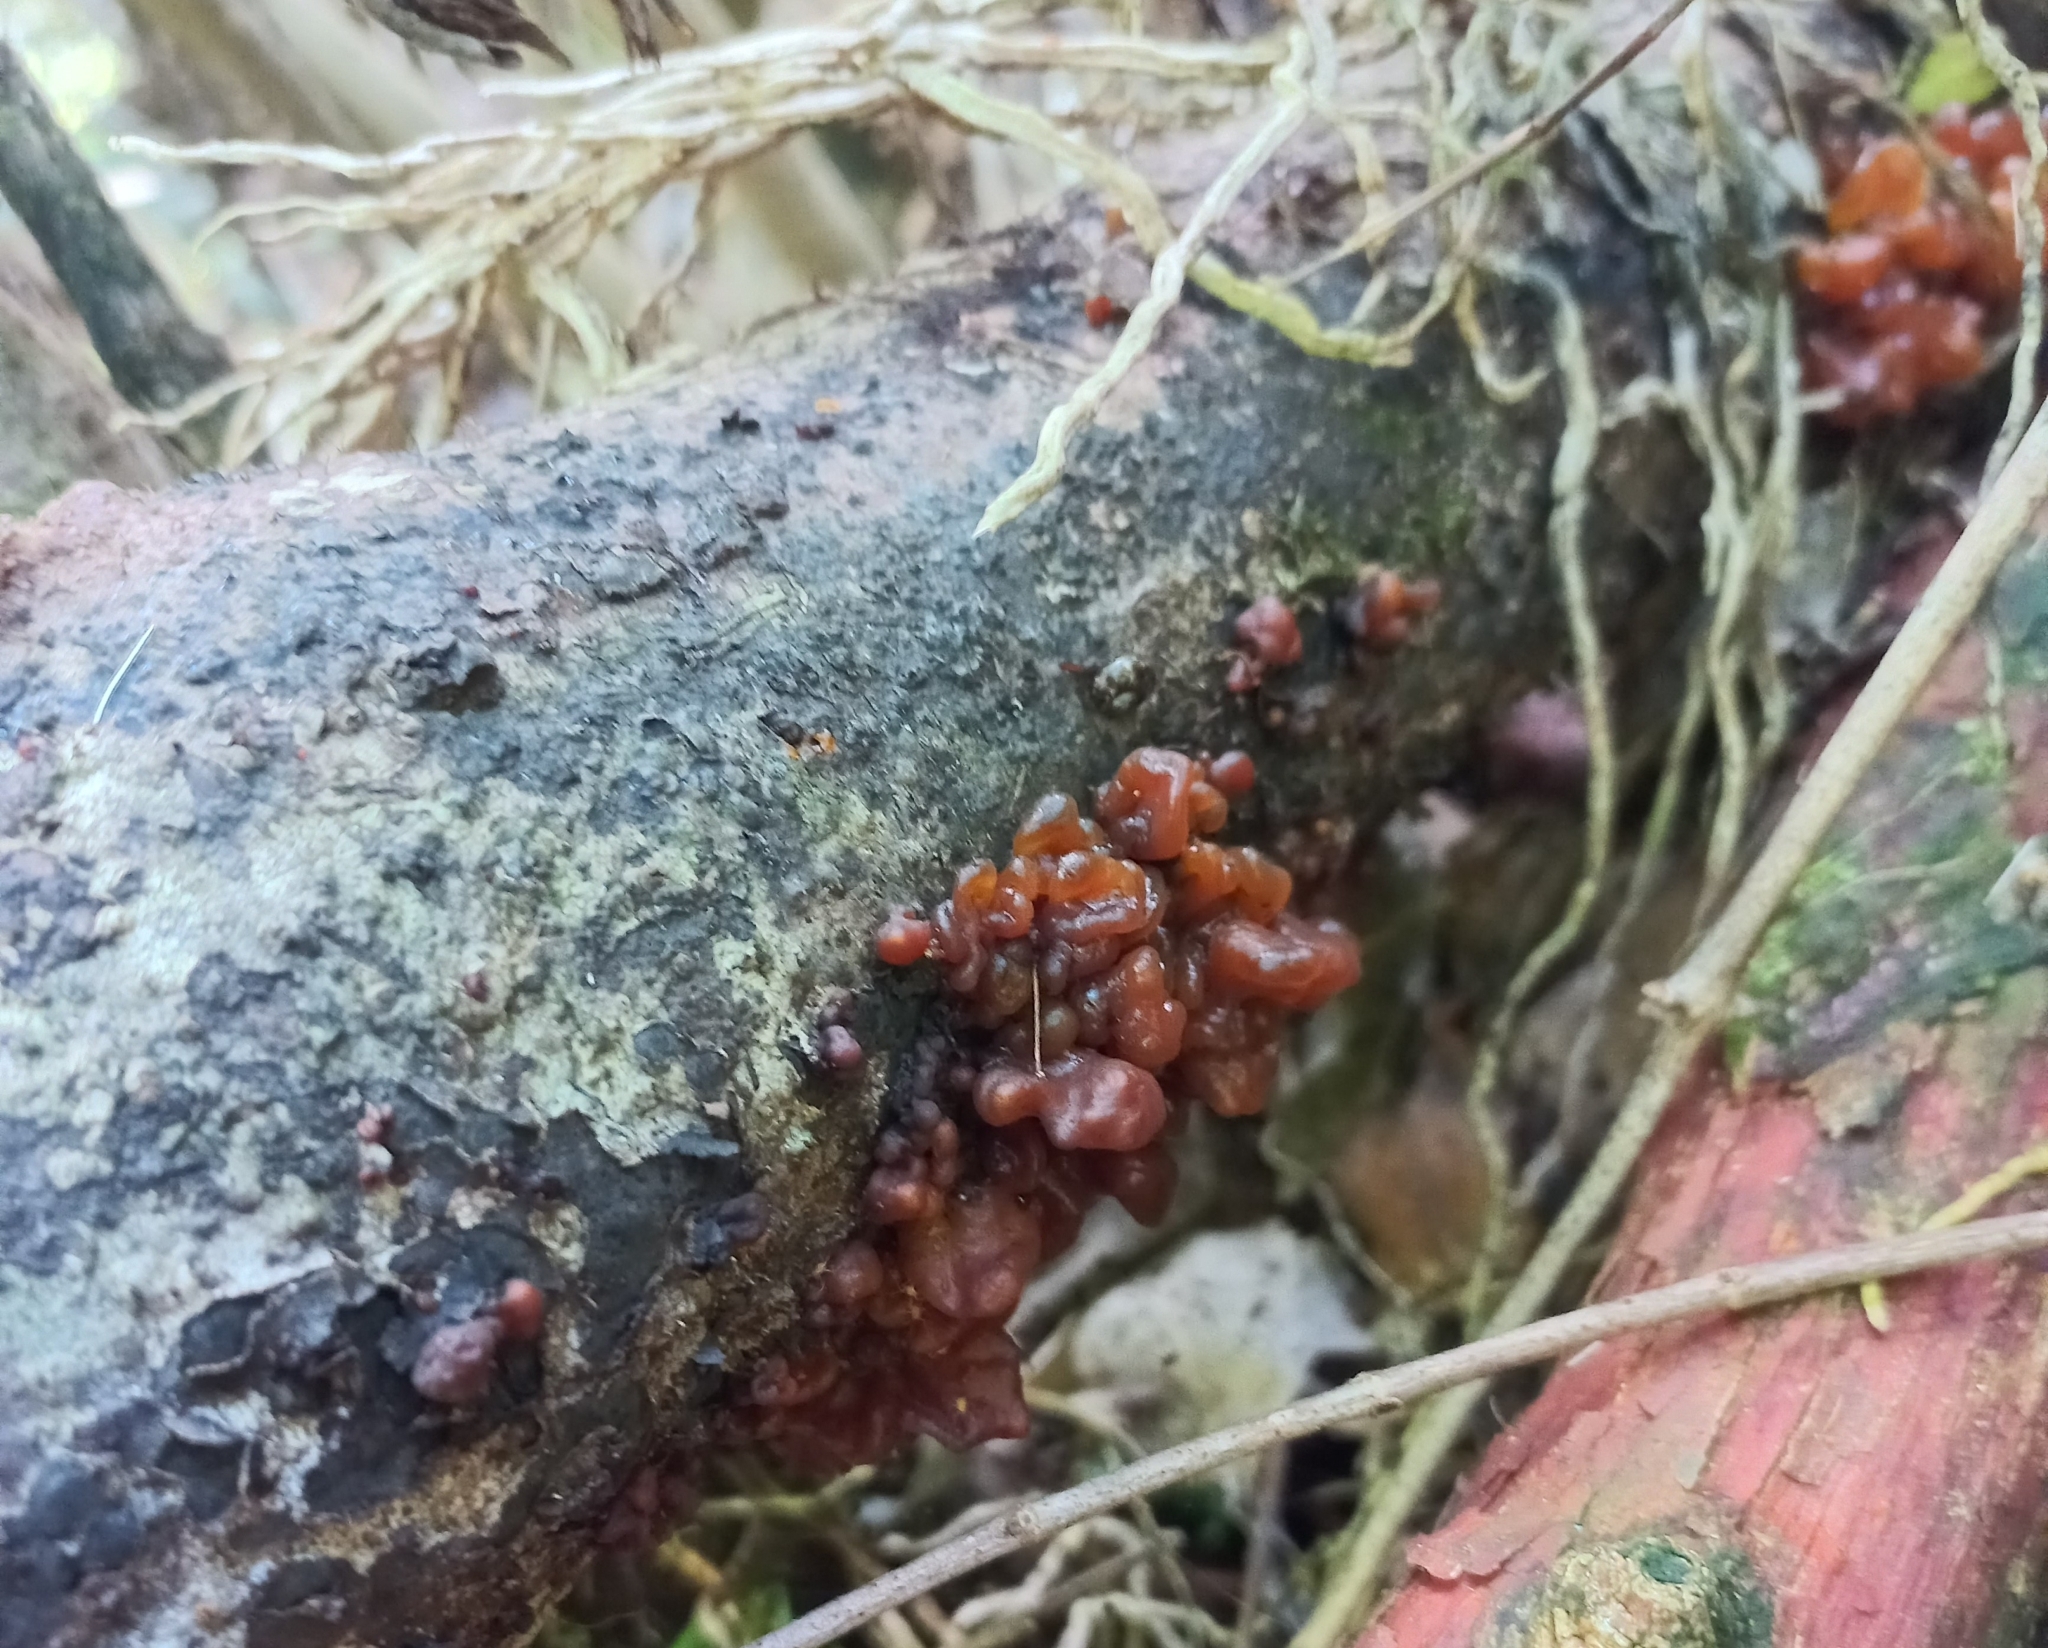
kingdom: Fungi
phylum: Basidiomycota
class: Tremellomycetes
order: Tremellales
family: Tremellaceae
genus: Tremella
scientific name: Tremella vesiculosa
